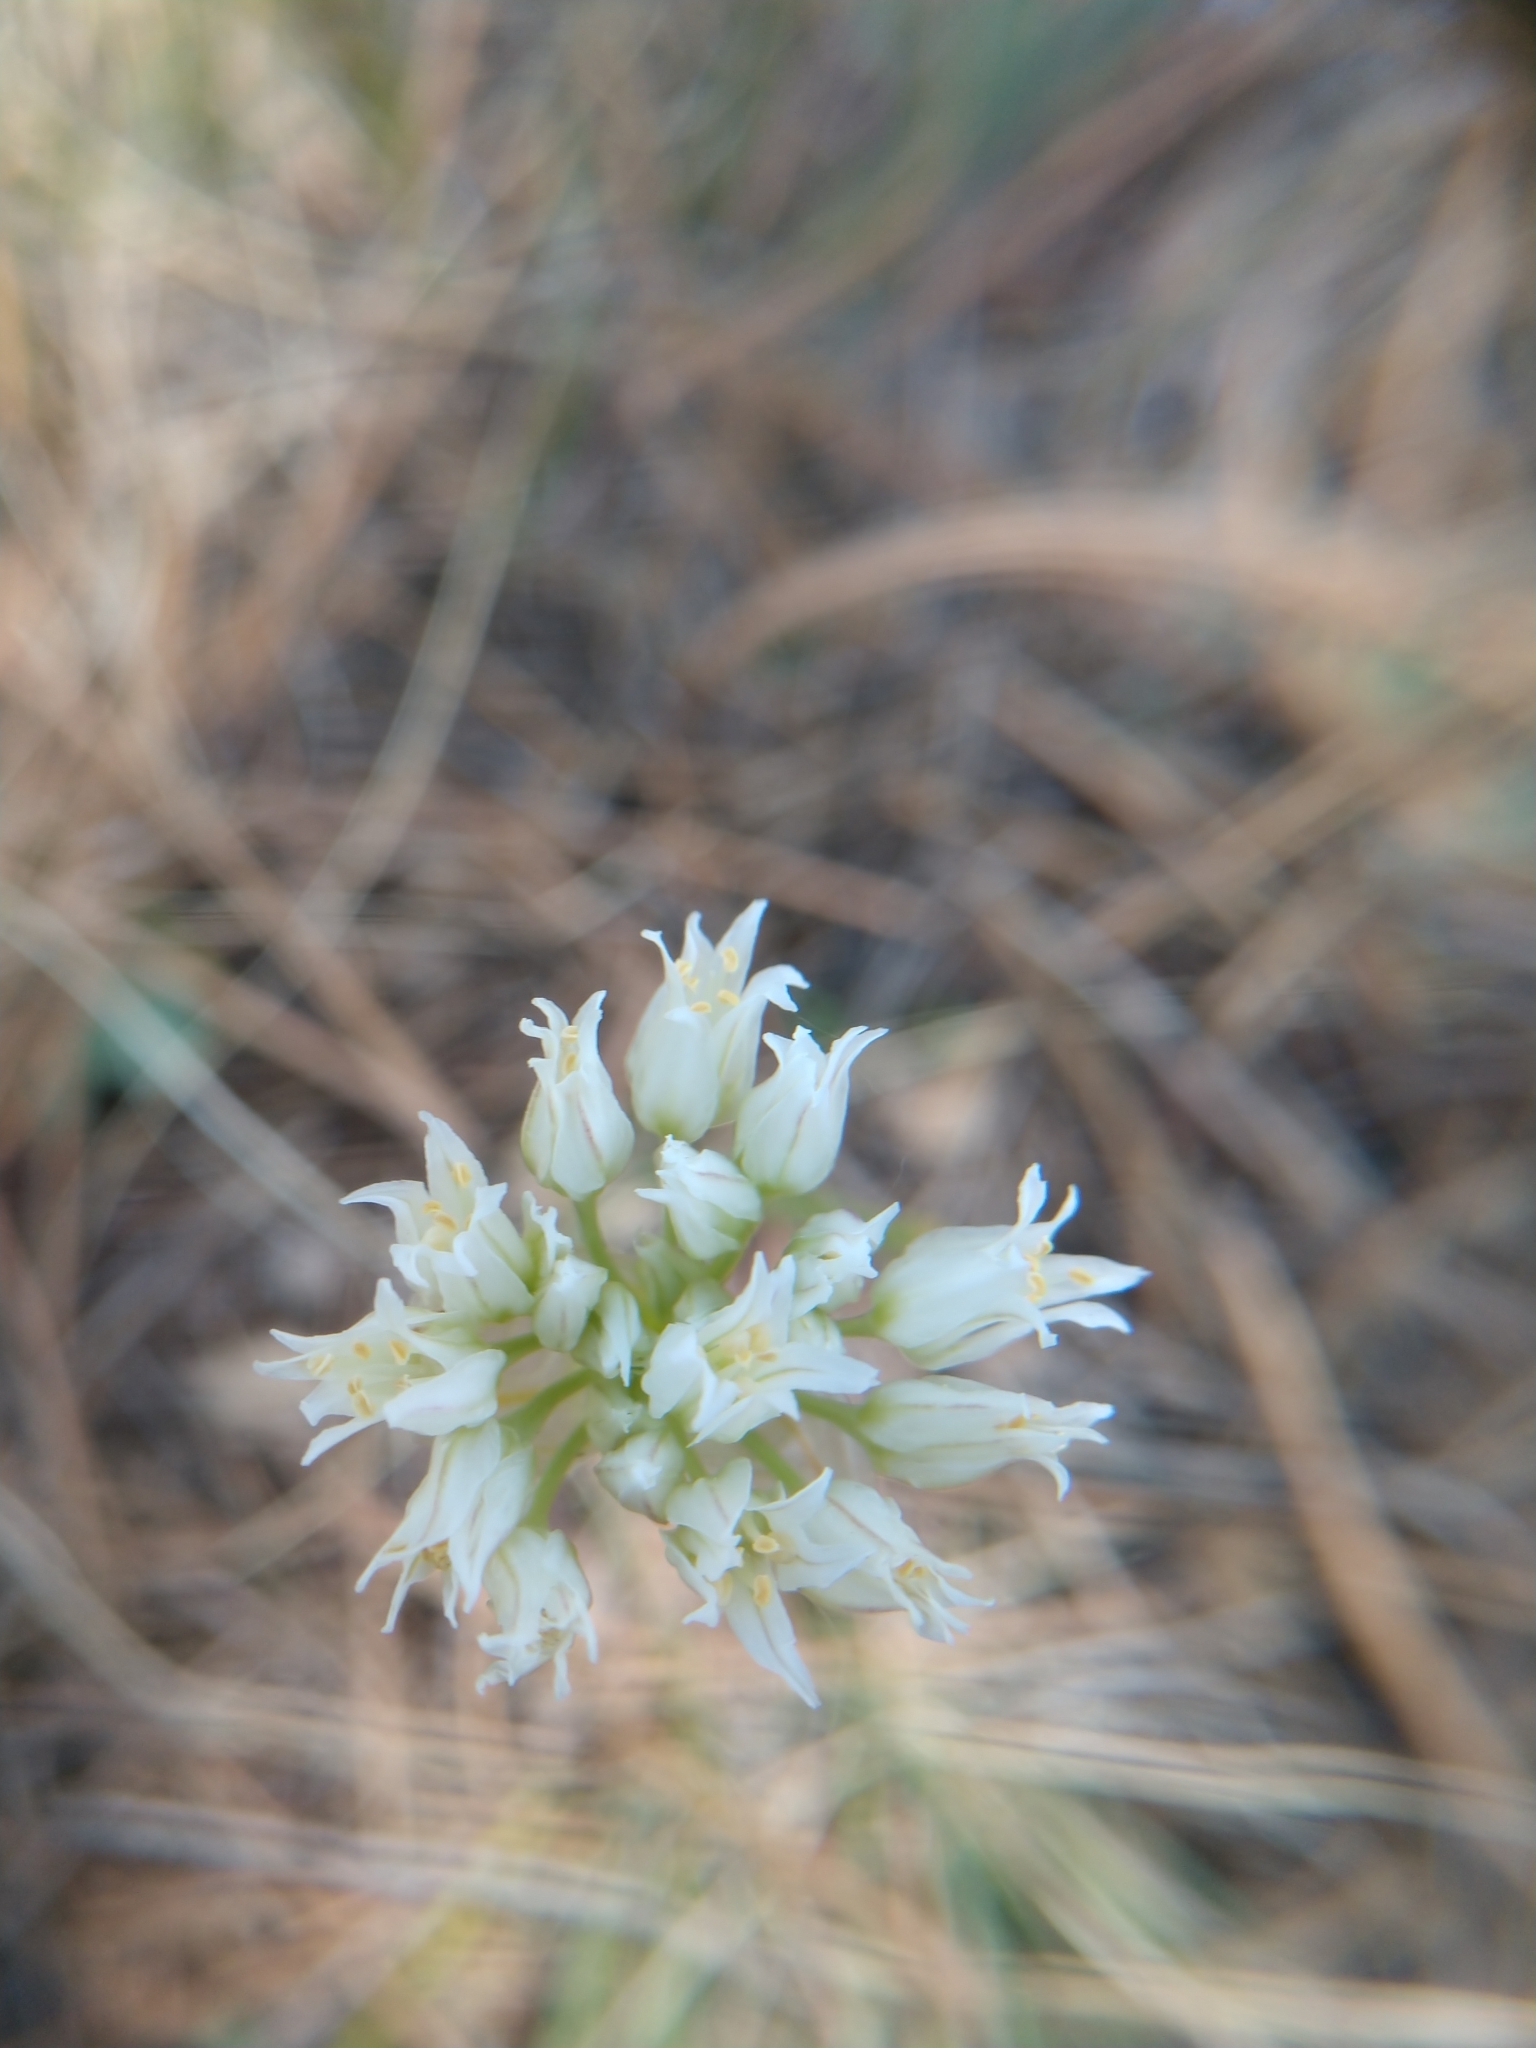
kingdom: Plantae
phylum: Tracheophyta
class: Liliopsida
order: Asparagales
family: Amaryllidaceae
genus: Allium
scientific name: Allium textile
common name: Prairie onion
